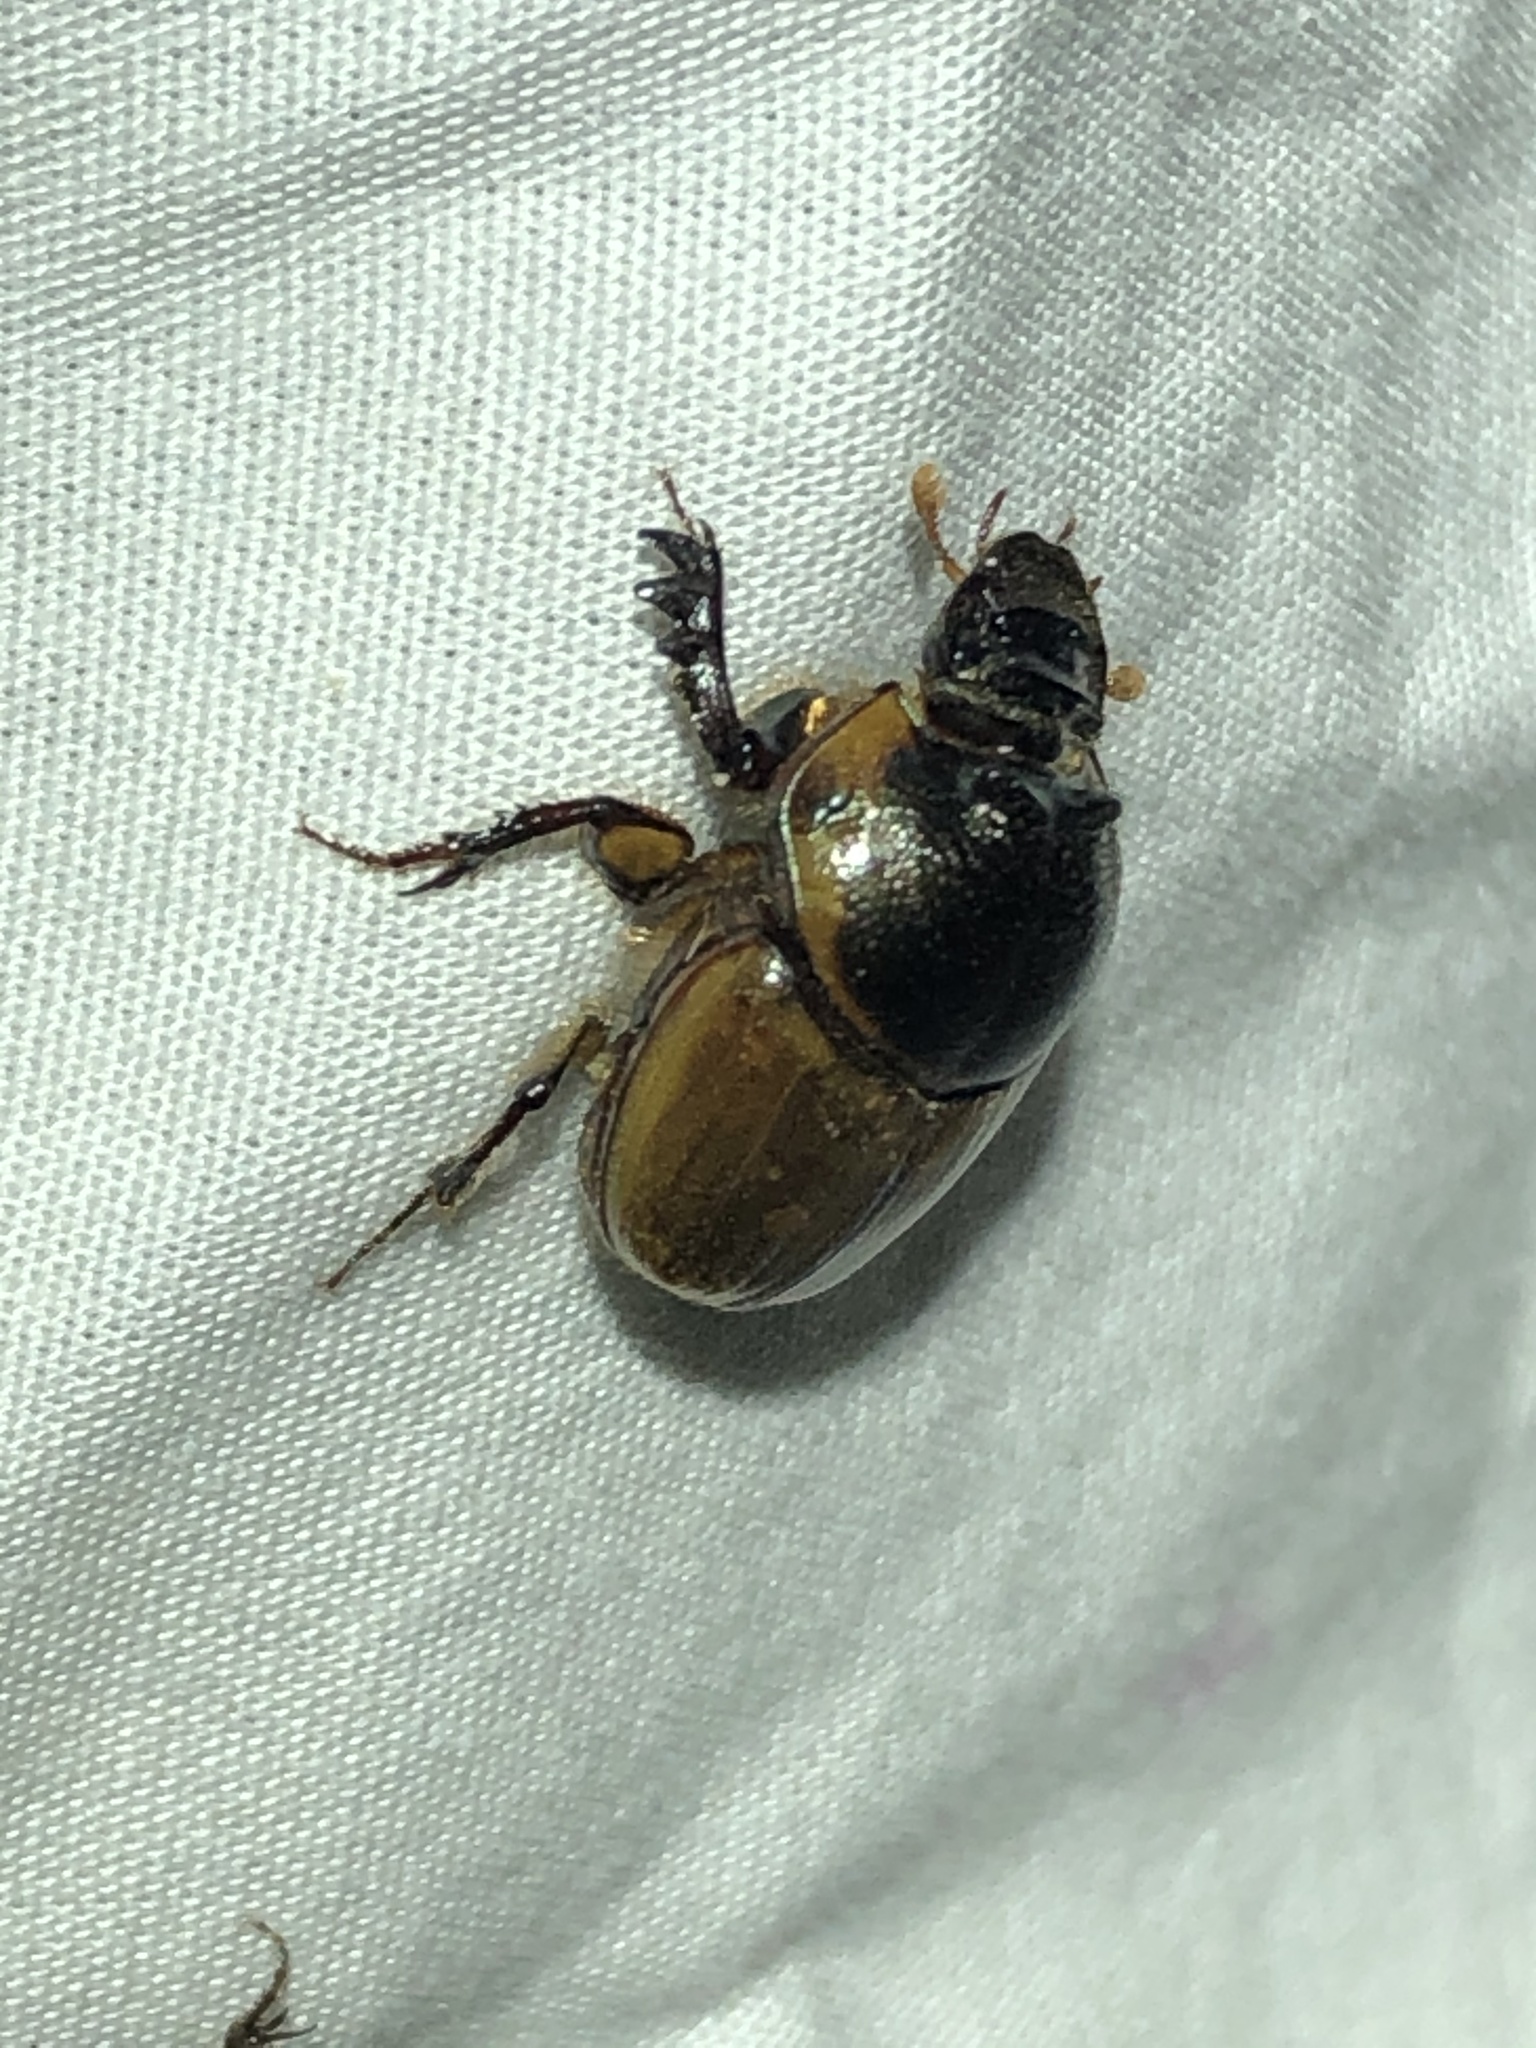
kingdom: Animalia
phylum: Arthropoda
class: Insecta
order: Coleoptera
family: Scarabaeidae
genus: Digitonthophagus
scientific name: Digitonthophagus gazella
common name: Brown dung beetle
